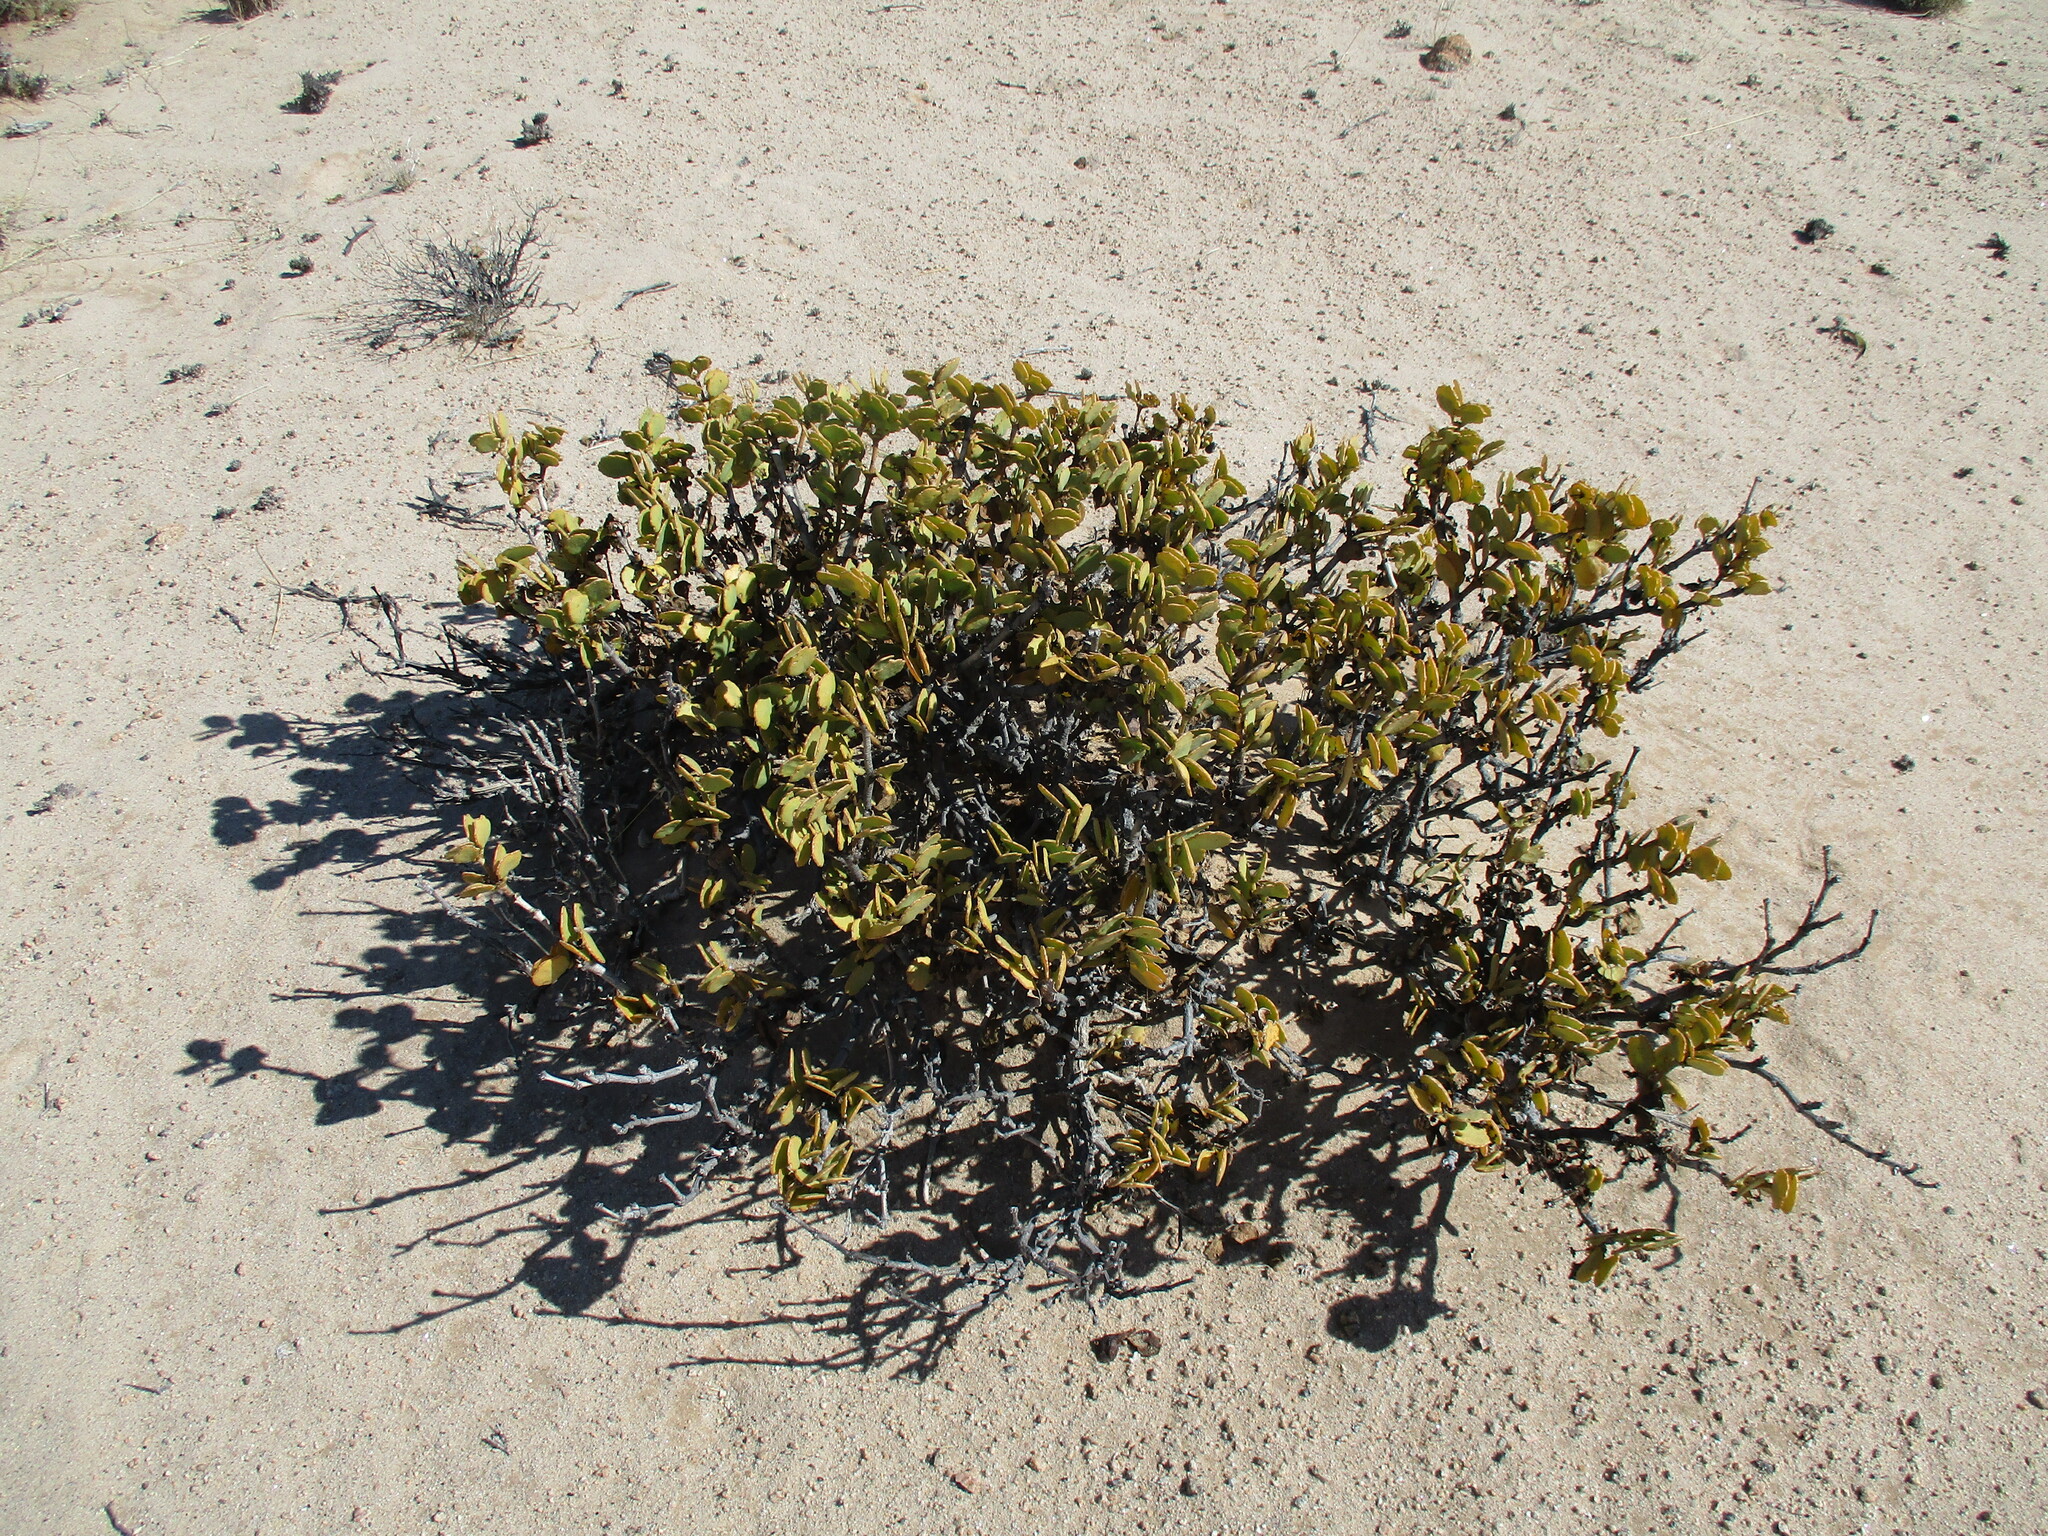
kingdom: Plantae
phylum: Tracheophyta
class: Magnoliopsida
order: Zygophyllales
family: Zygophyllaceae
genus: Tetraena
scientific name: Tetraena stapfii
